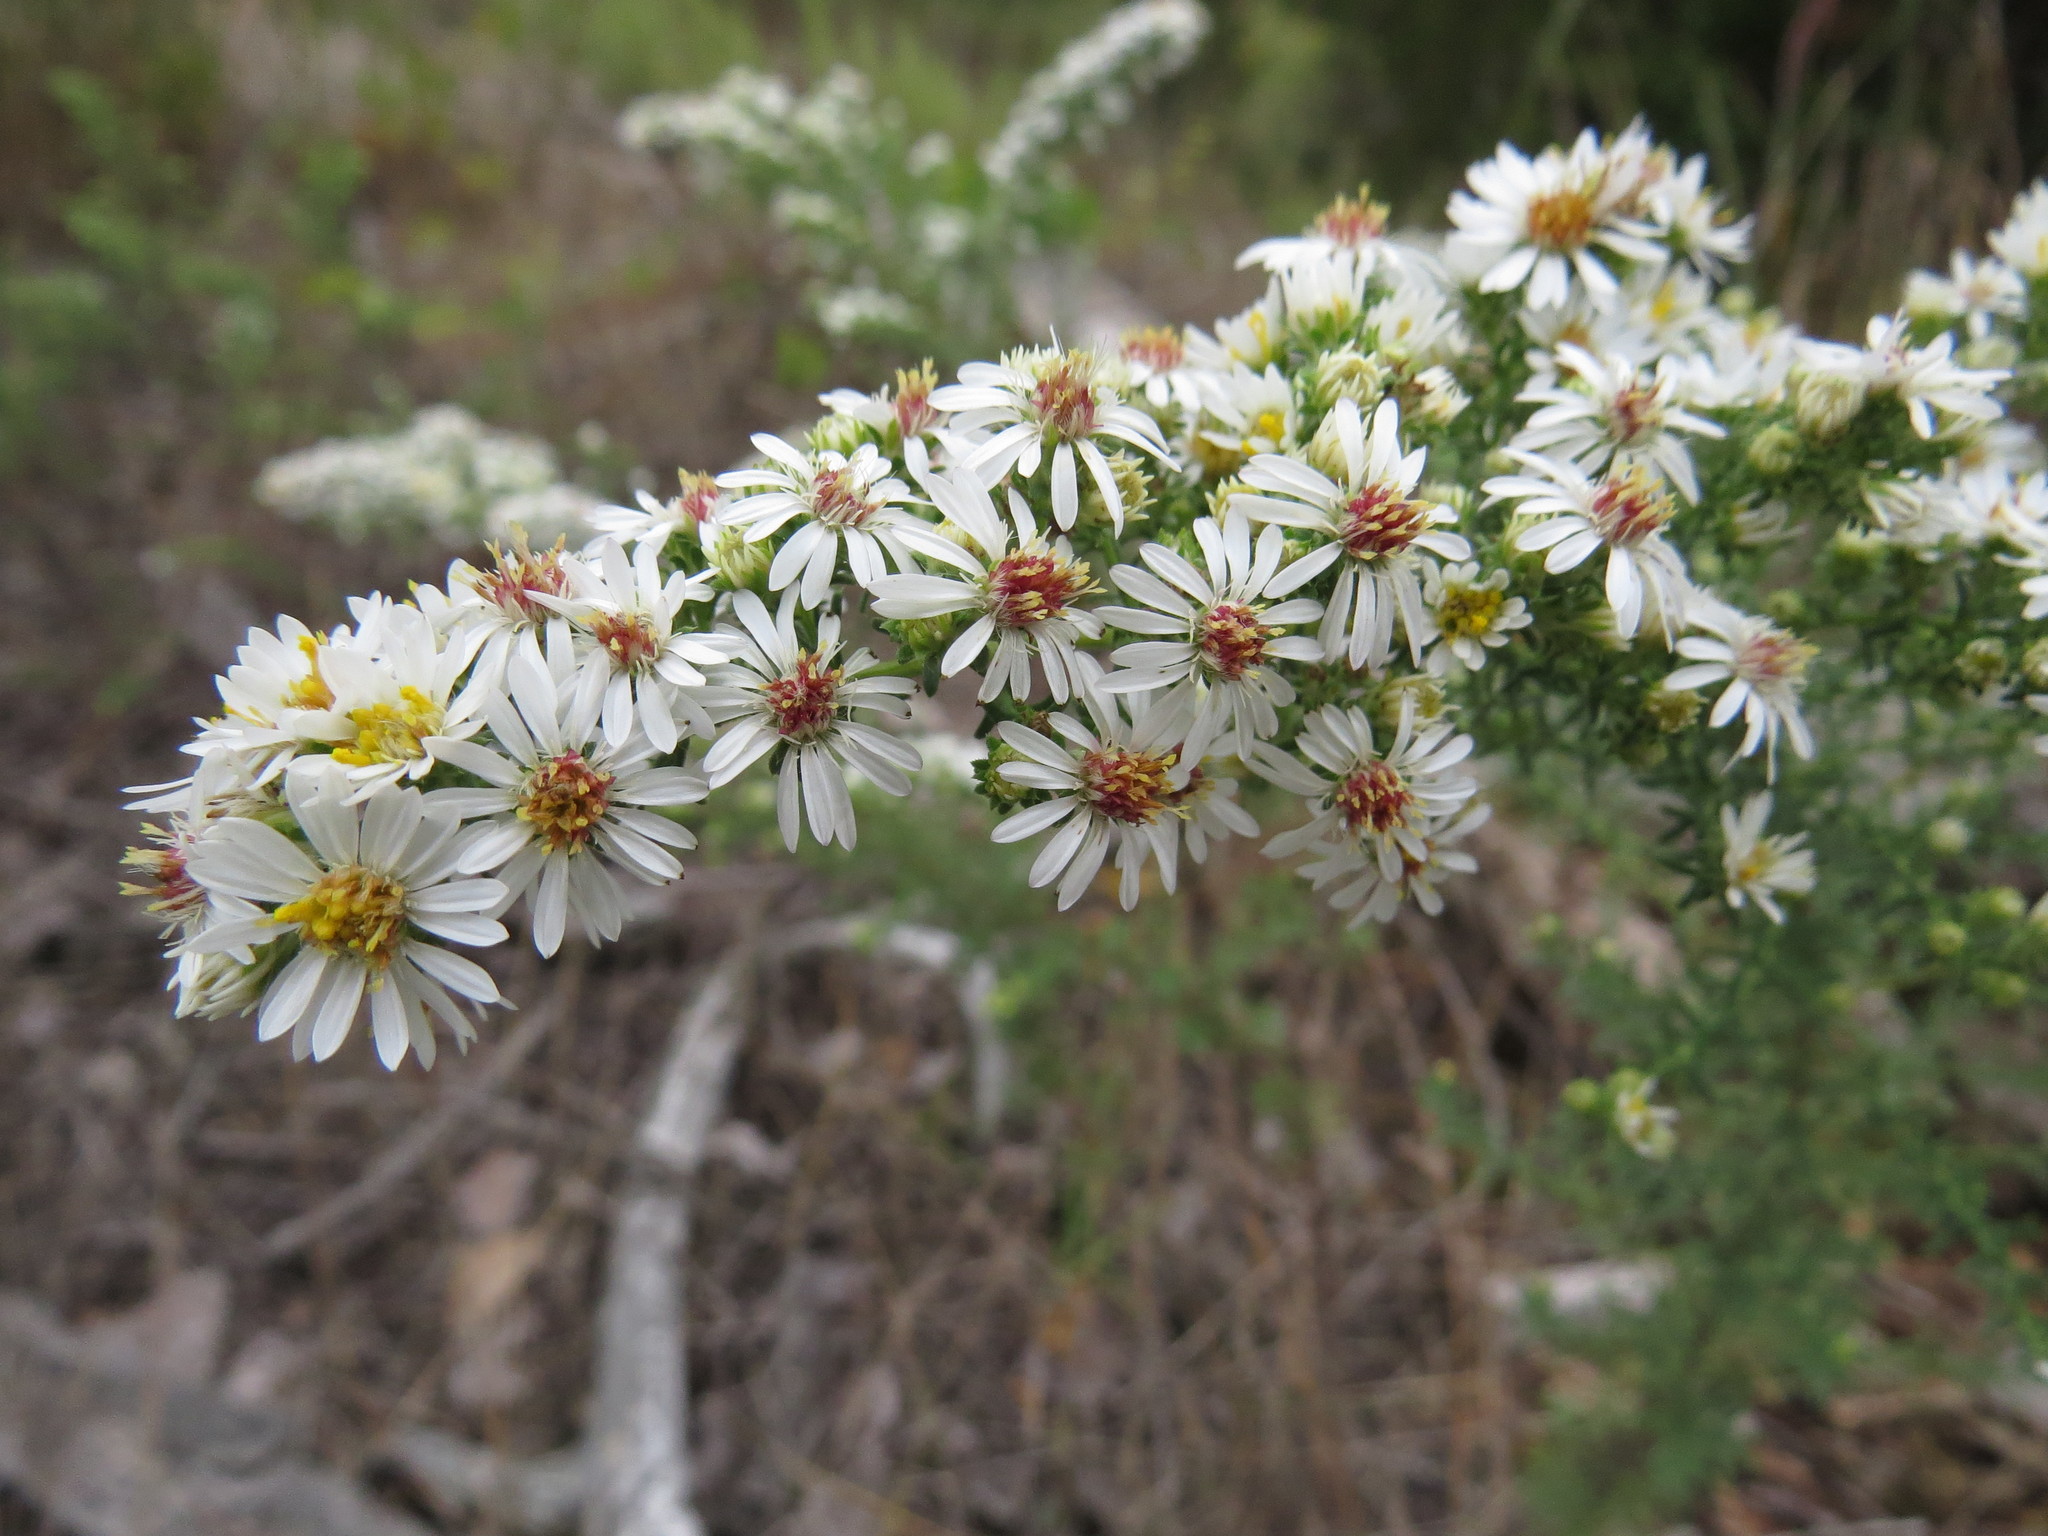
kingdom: Plantae
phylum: Tracheophyta
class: Magnoliopsida
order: Asterales
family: Asteraceae
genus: Symphyotrichum
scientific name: Symphyotrichum ericoides
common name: Heath aster
